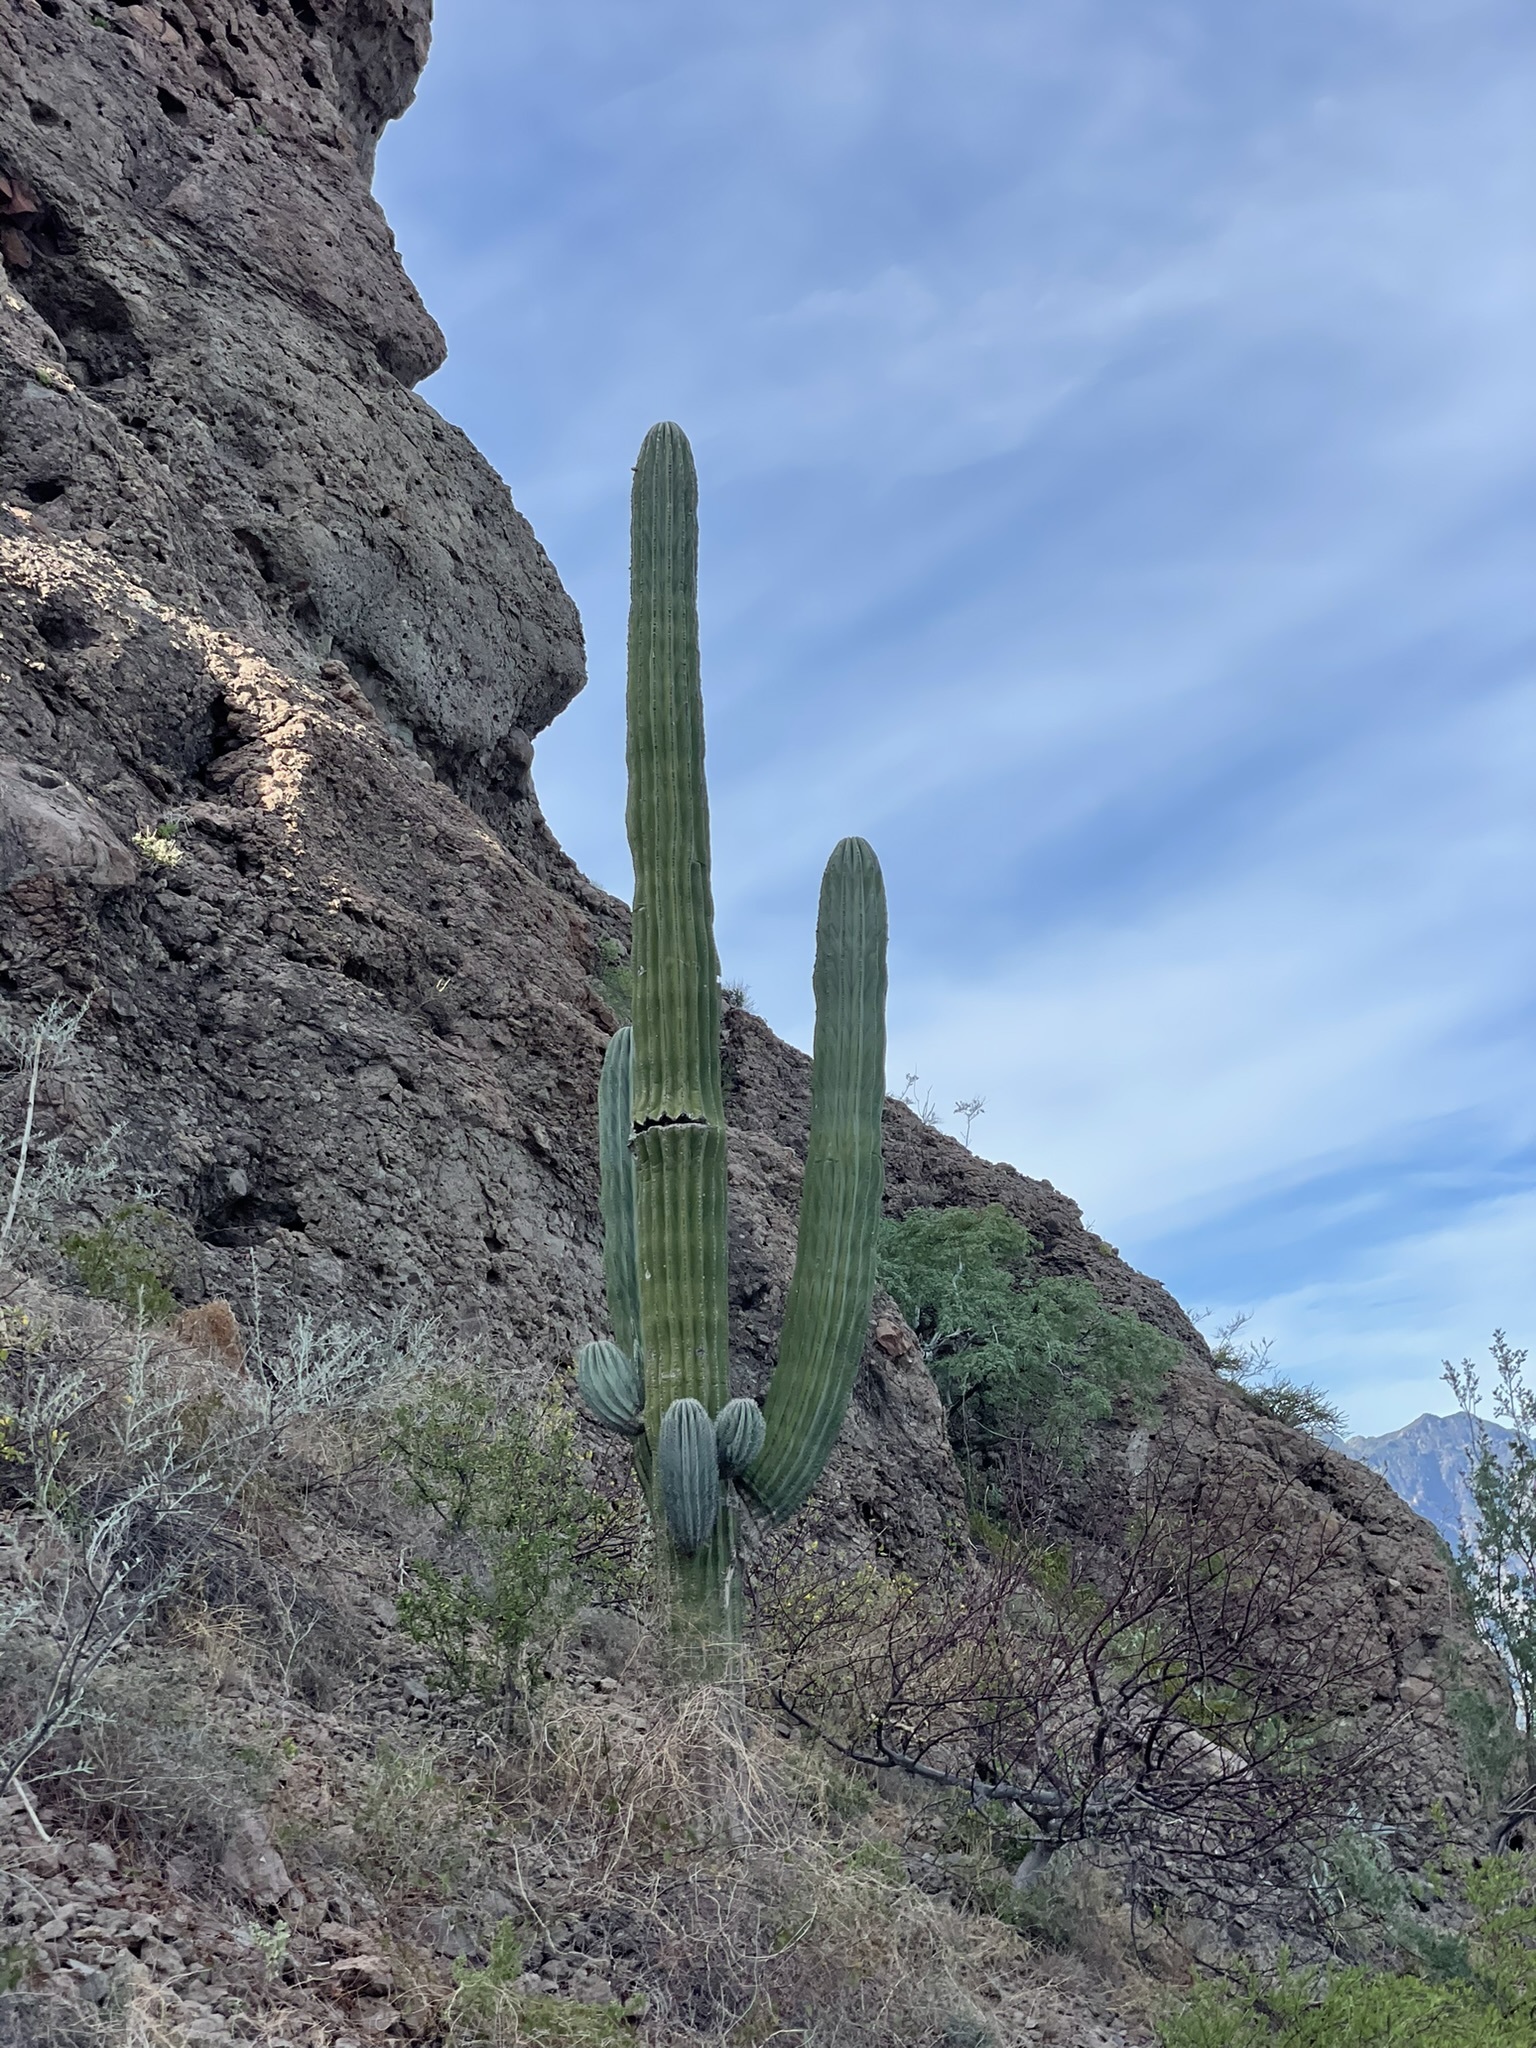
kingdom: Plantae
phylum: Tracheophyta
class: Magnoliopsida
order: Caryophyllales
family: Cactaceae
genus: Pachycereus
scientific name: Pachycereus pringlei
